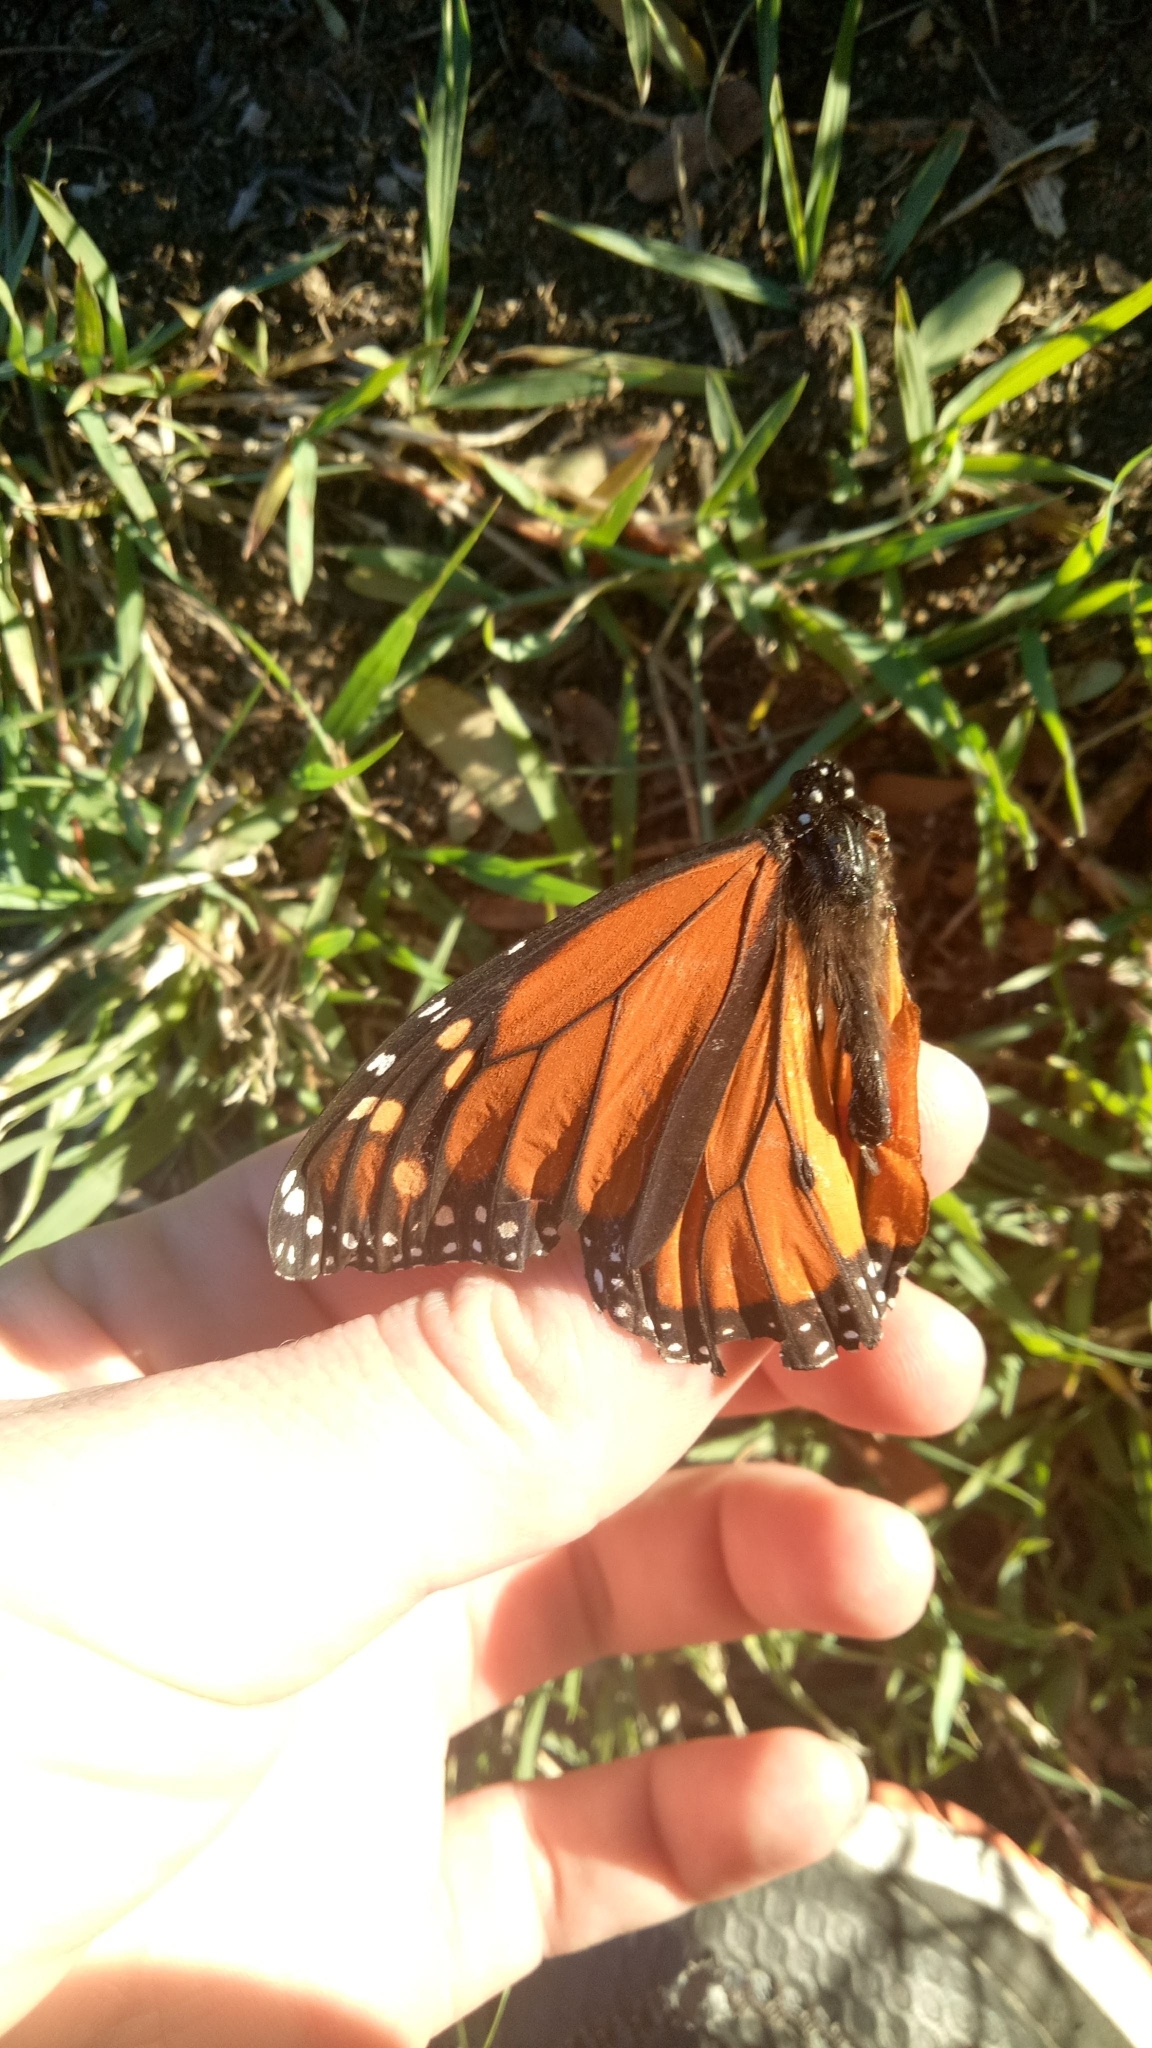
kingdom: Animalia
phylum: Arthropoda
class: Insecta
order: Lepidoptera
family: Nymphalidae
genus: Danaus
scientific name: Danaus plexippus
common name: Monarch
